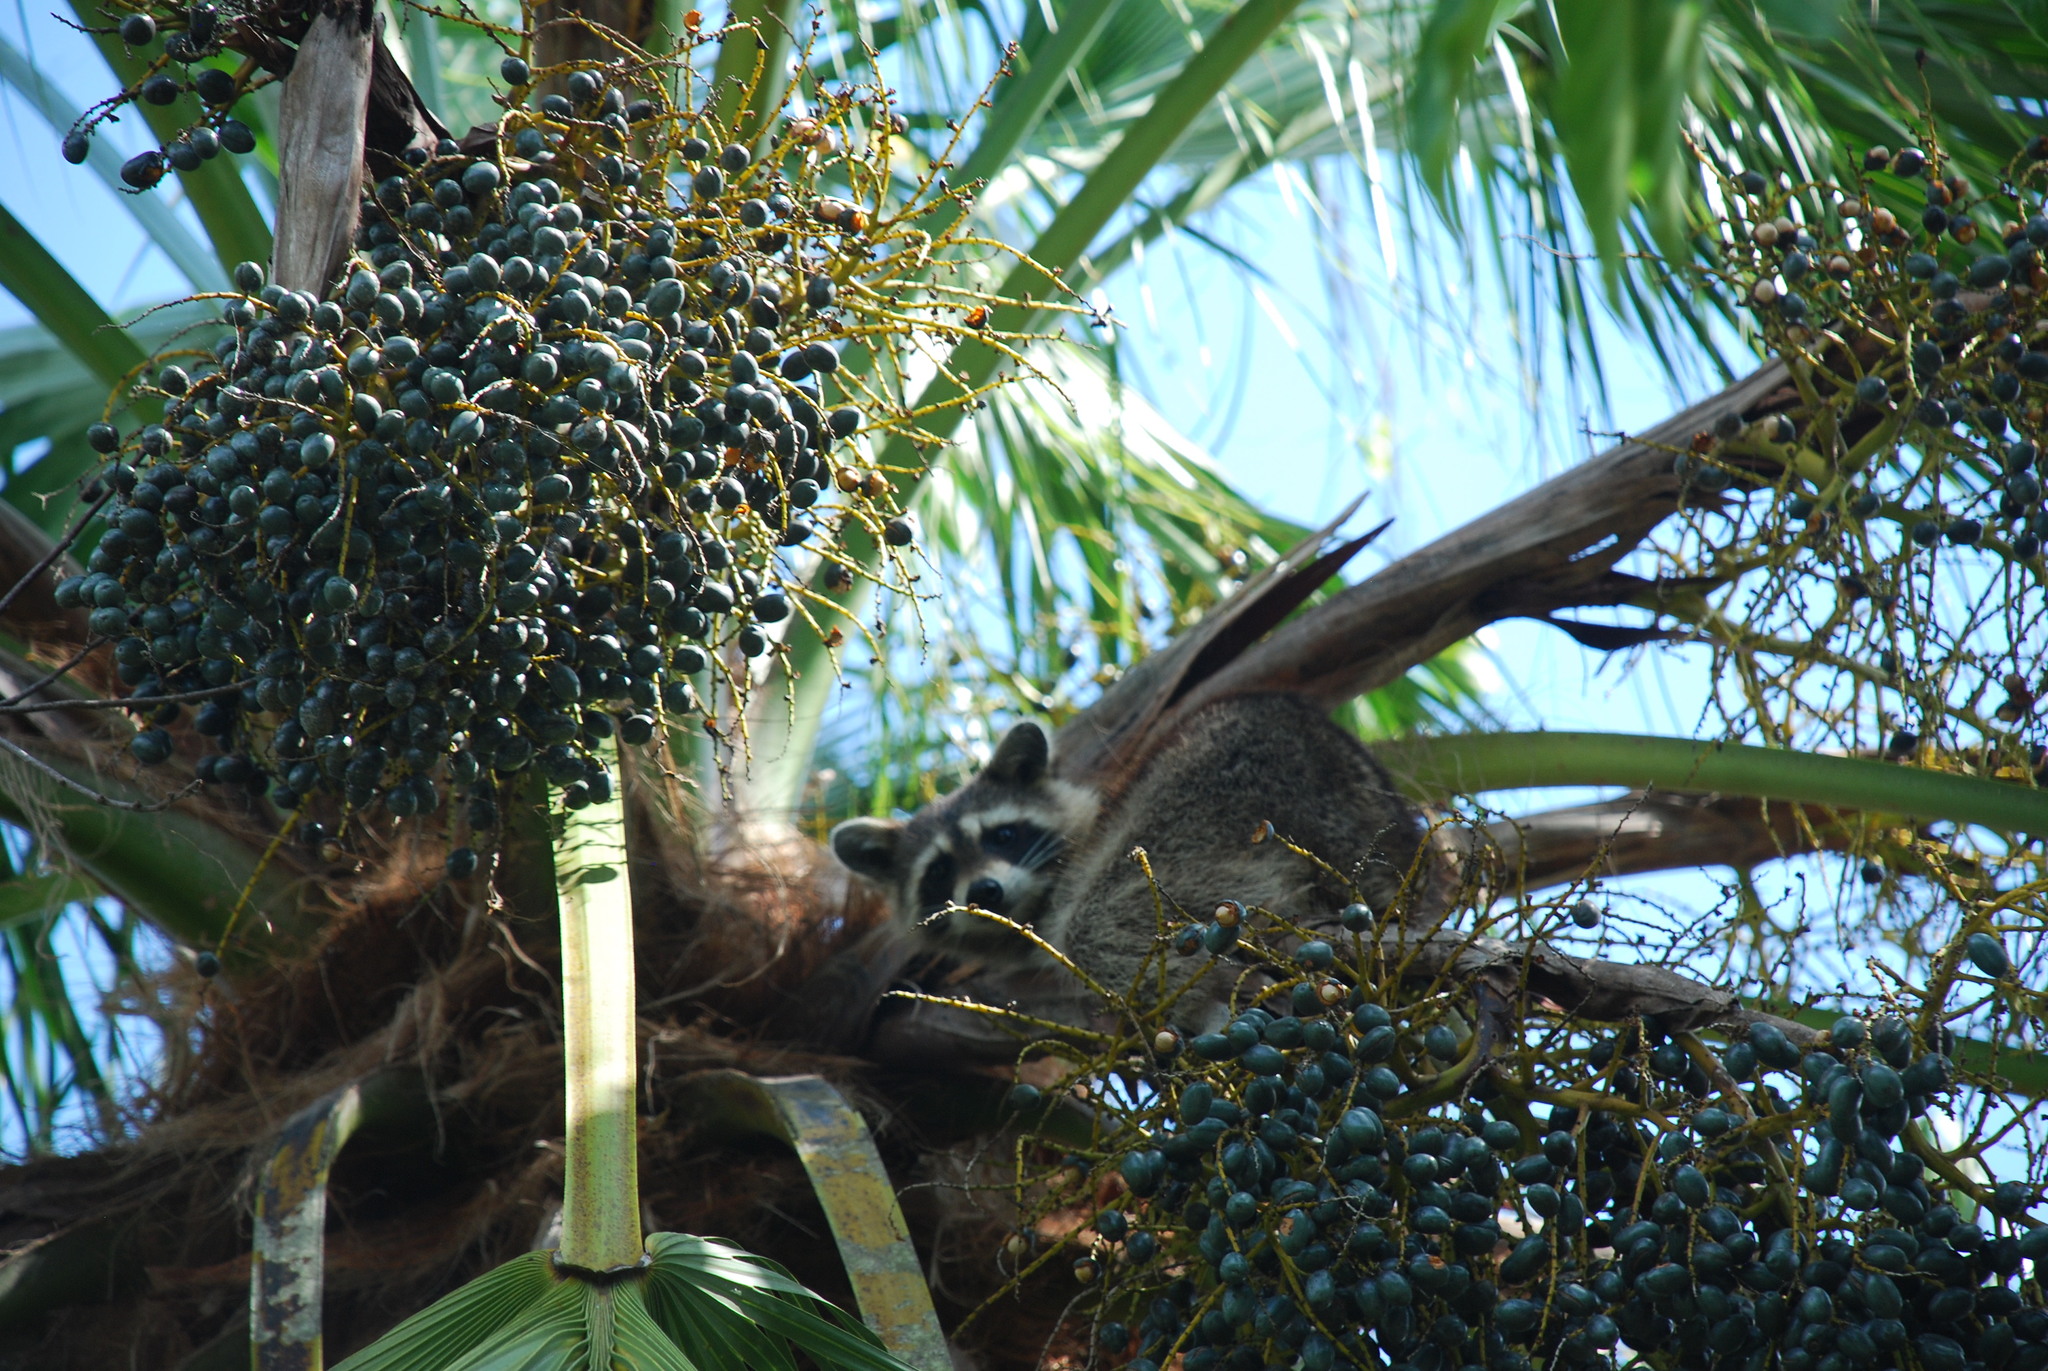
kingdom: Animalia
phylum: Chordata
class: Mammalia
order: Carnivora
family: Procyonidae
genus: Procyon
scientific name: Procyon lotor
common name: Raccoon
